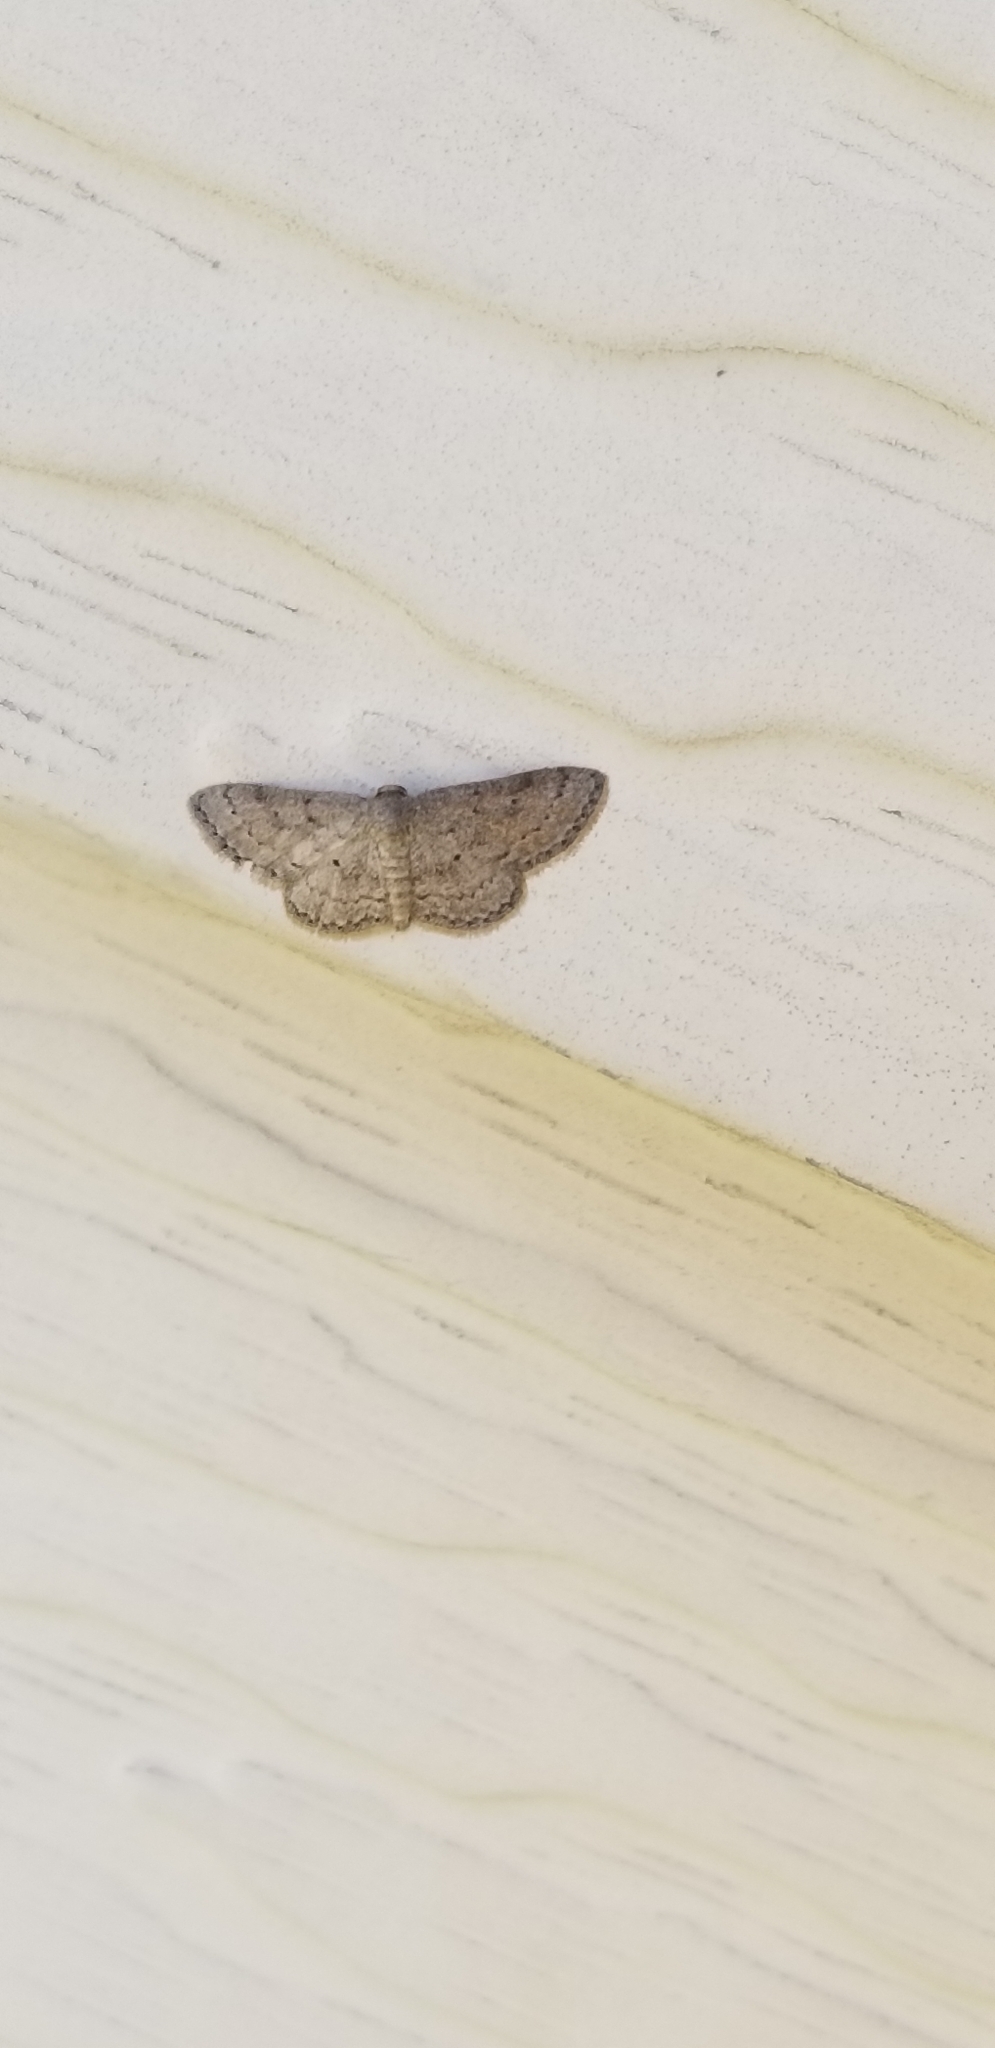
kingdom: Animalia
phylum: Arthropoda
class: Insecta
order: Lepidoptera
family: Geometridae
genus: Lobocleta
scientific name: Lobocleta ossularia
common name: Drab brown wave
